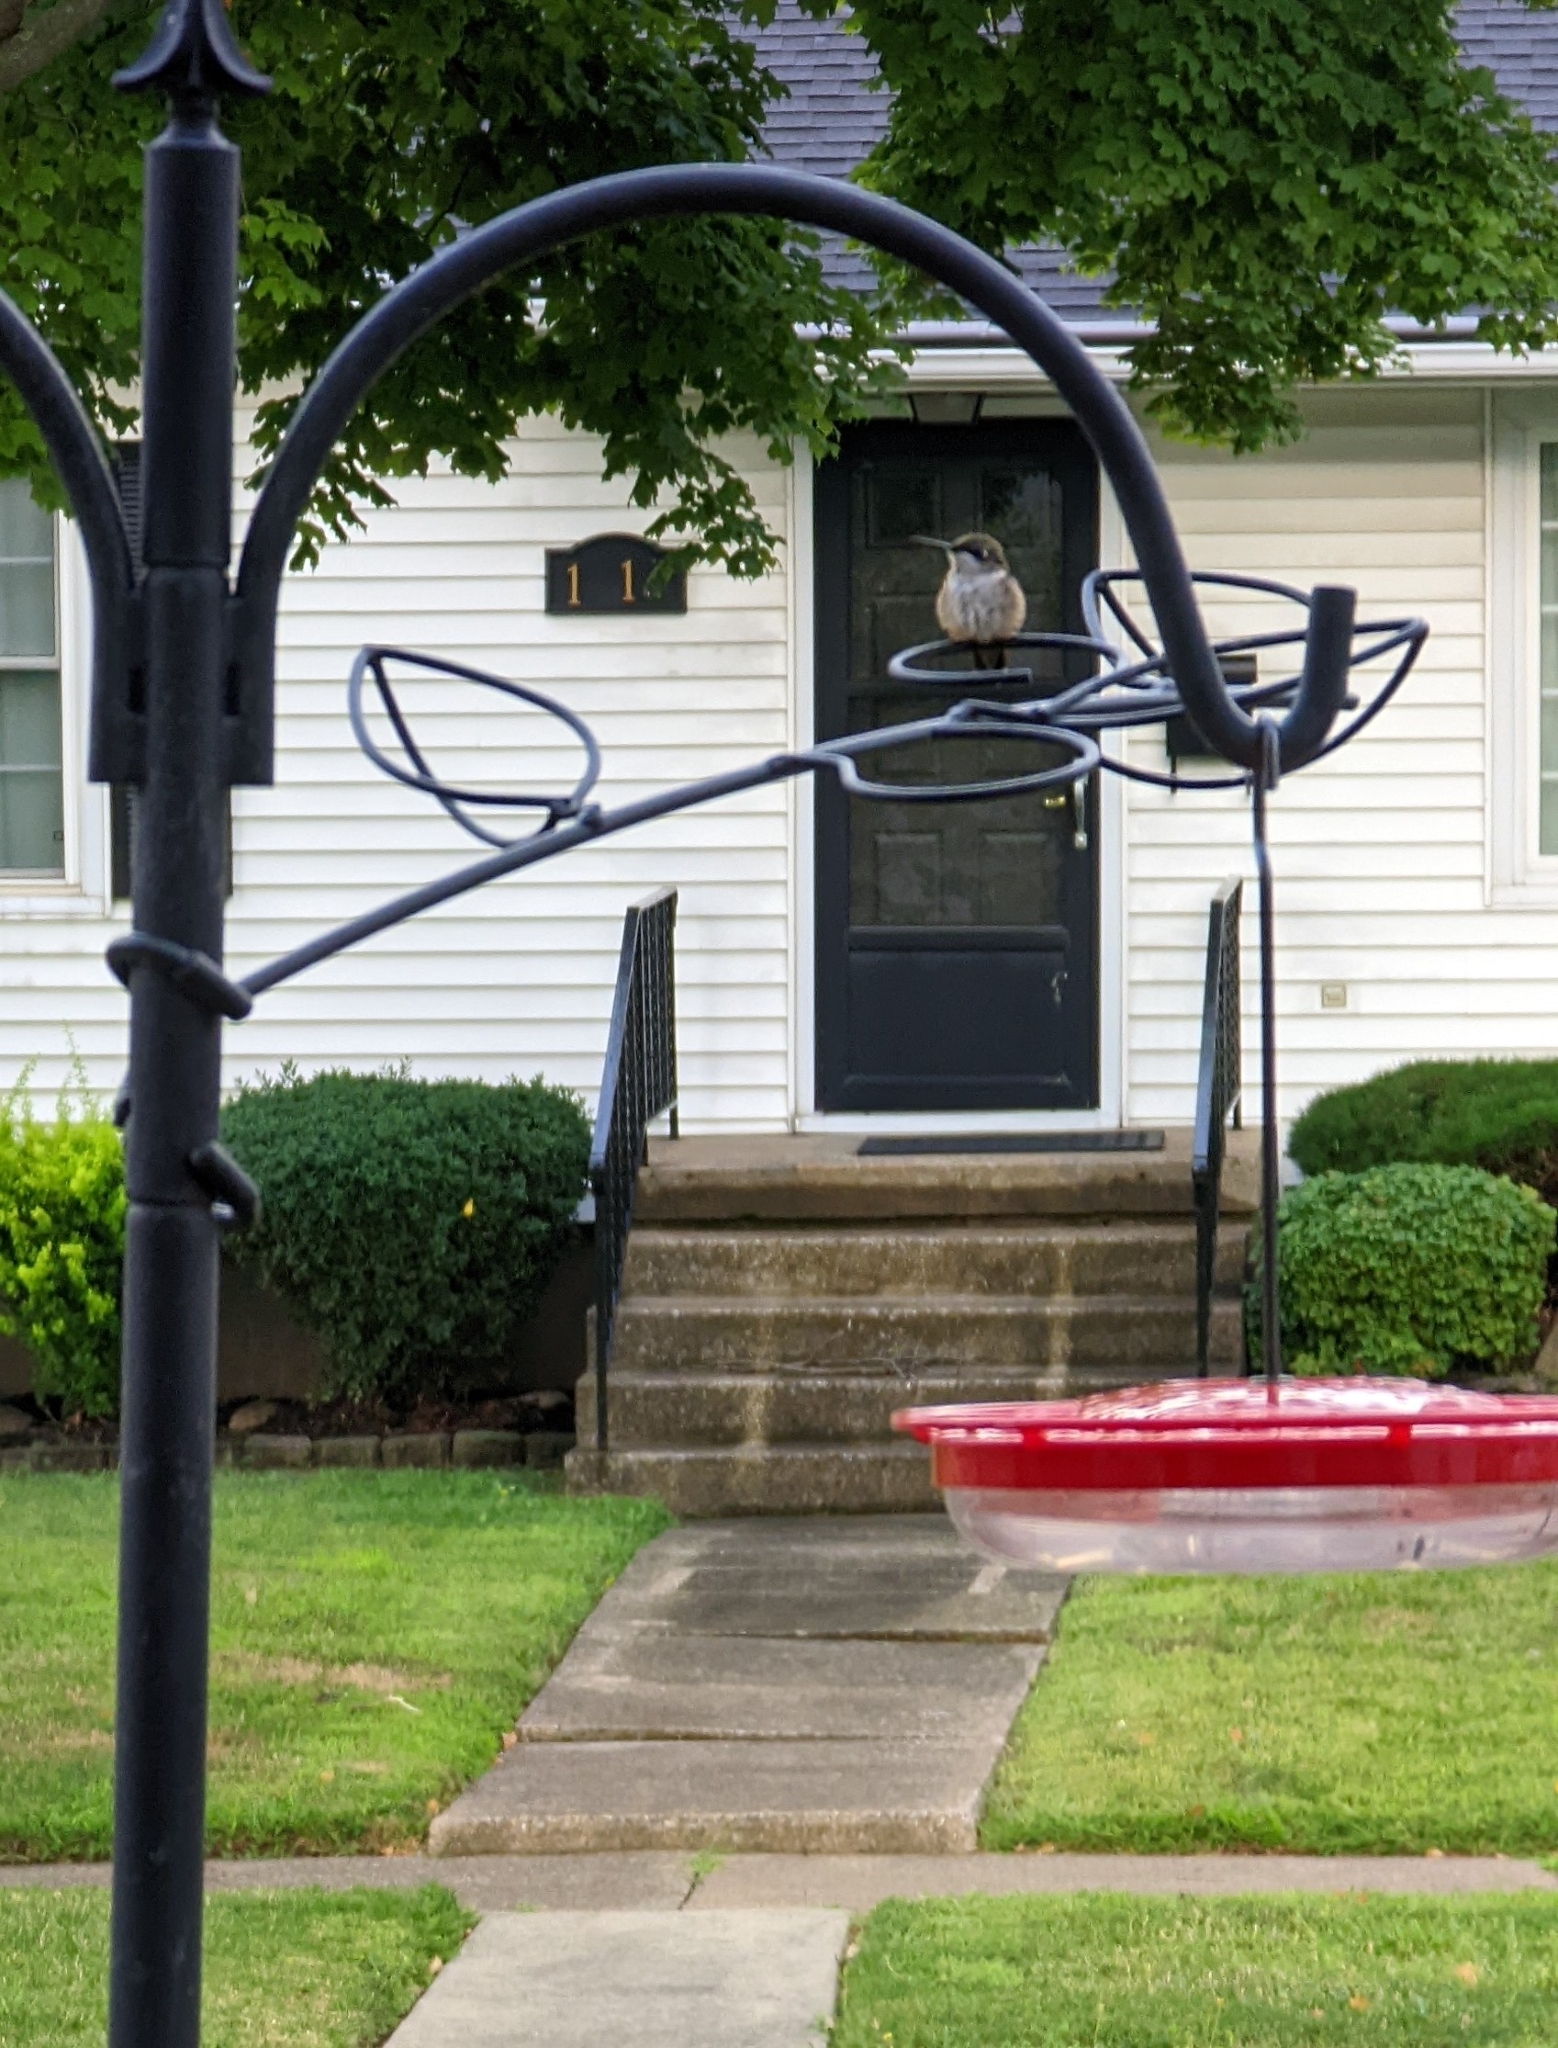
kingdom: Animalia
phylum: Chordata
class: Aves
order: Apodiformes
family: Trochilidae
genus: Archilochus
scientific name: Archilochus colubris
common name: Ruby-throated hummingbird
